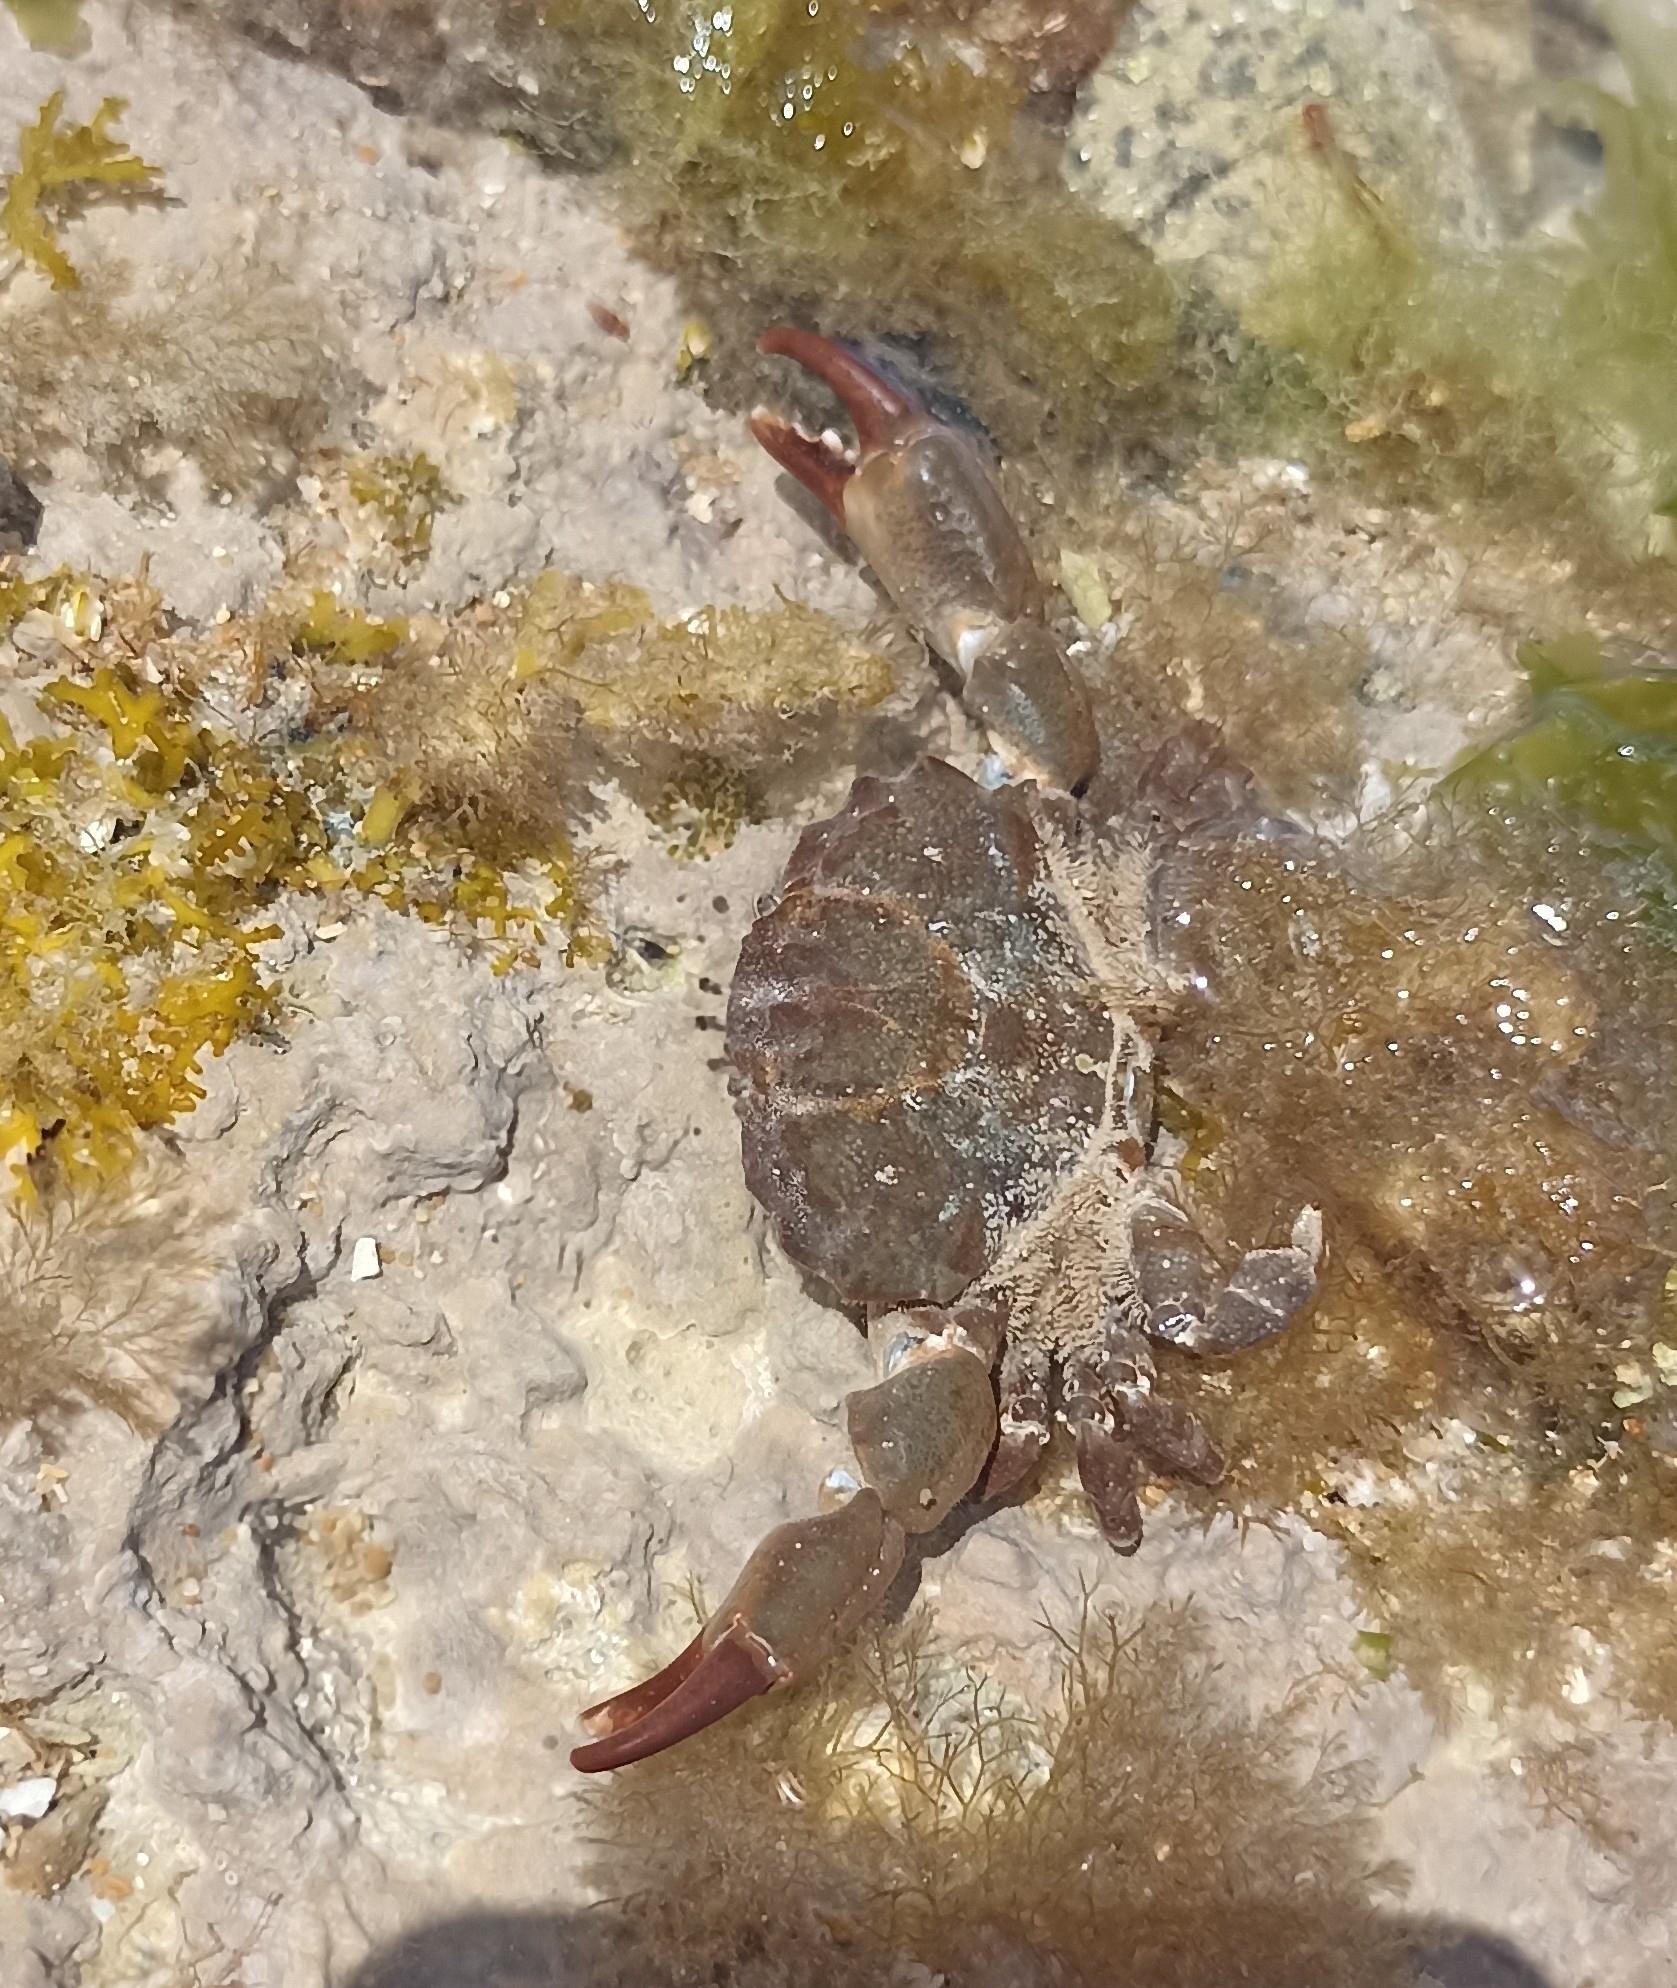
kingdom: Animalia
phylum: Arthropoda
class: Malacostraca
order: Decapoda
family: Xanthidae
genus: Xantho
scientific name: Xantho hydrophilus
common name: Montagu's crab
